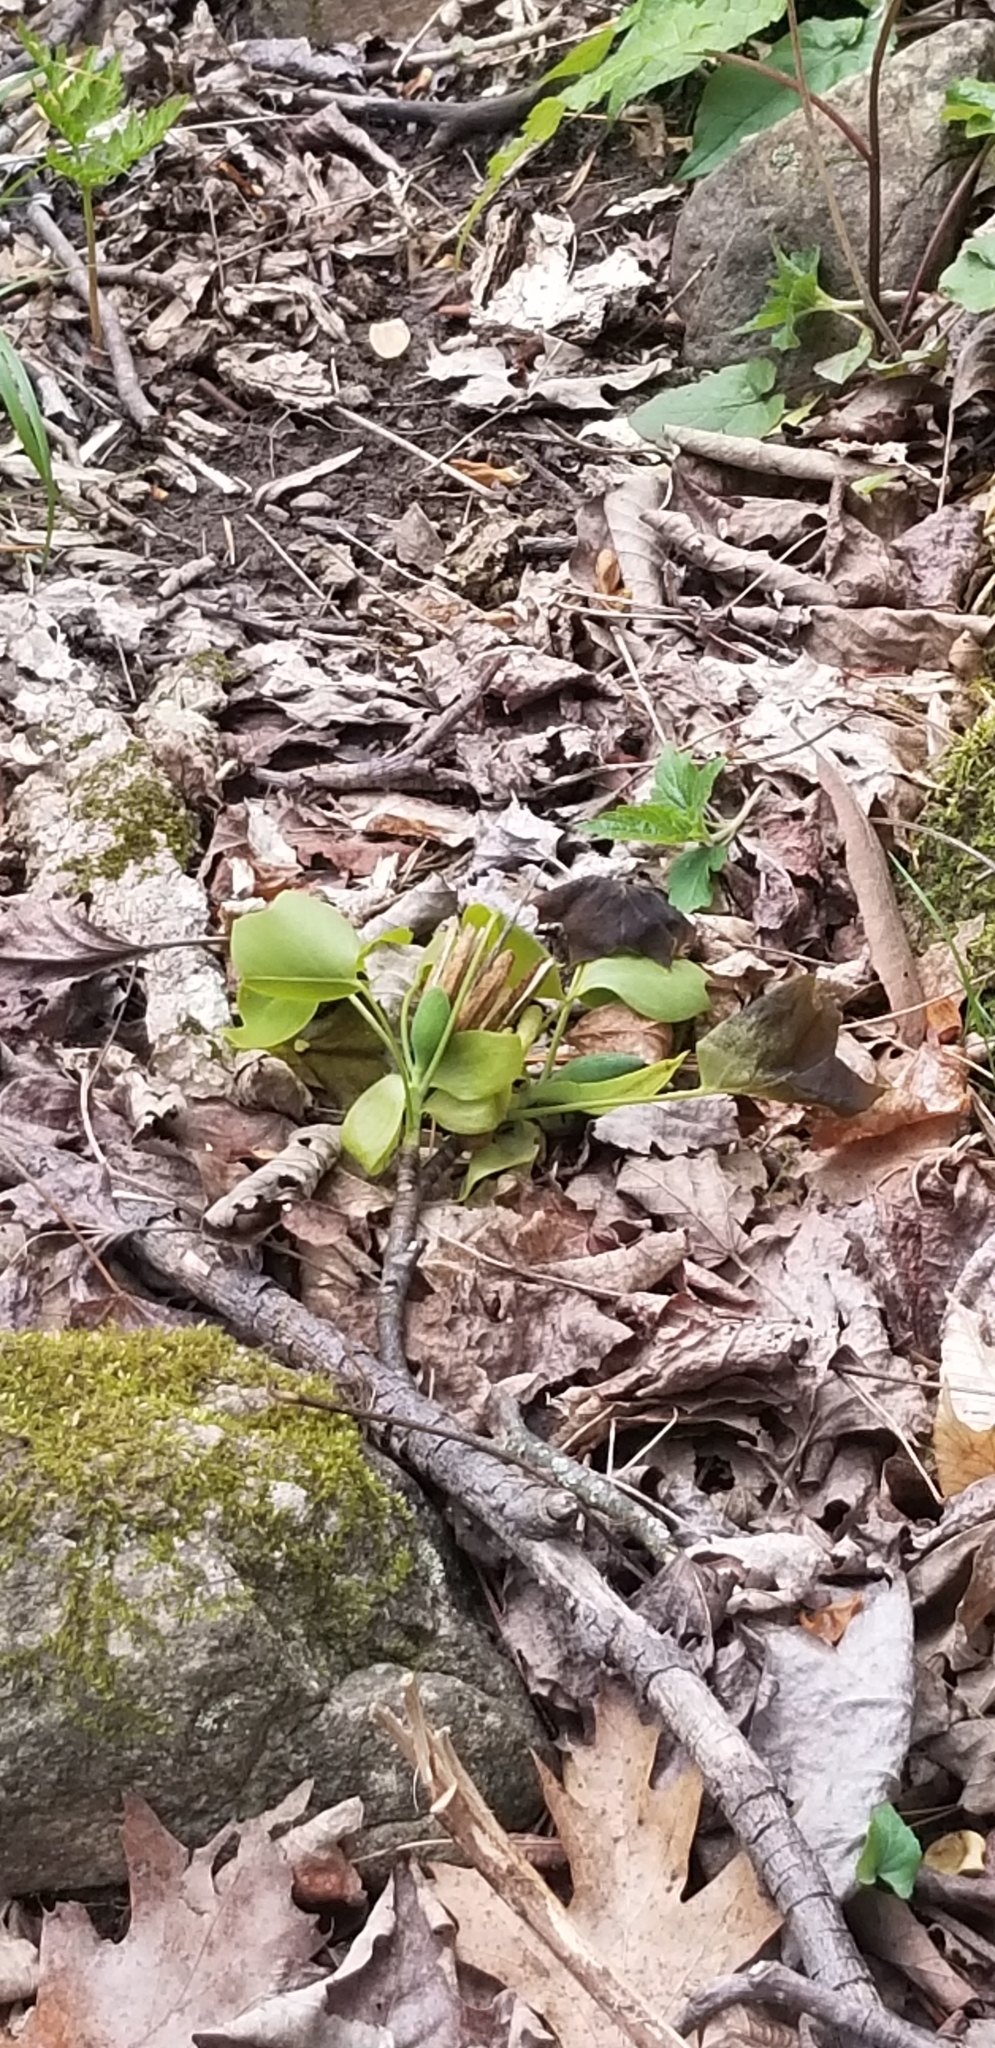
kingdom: Plantae
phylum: Tracheophyta
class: Magnoliopsida
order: Magnoliales
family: Magnoliaceae
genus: Liriodendron
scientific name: Liriodendron tulipifera
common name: Tulip tree
